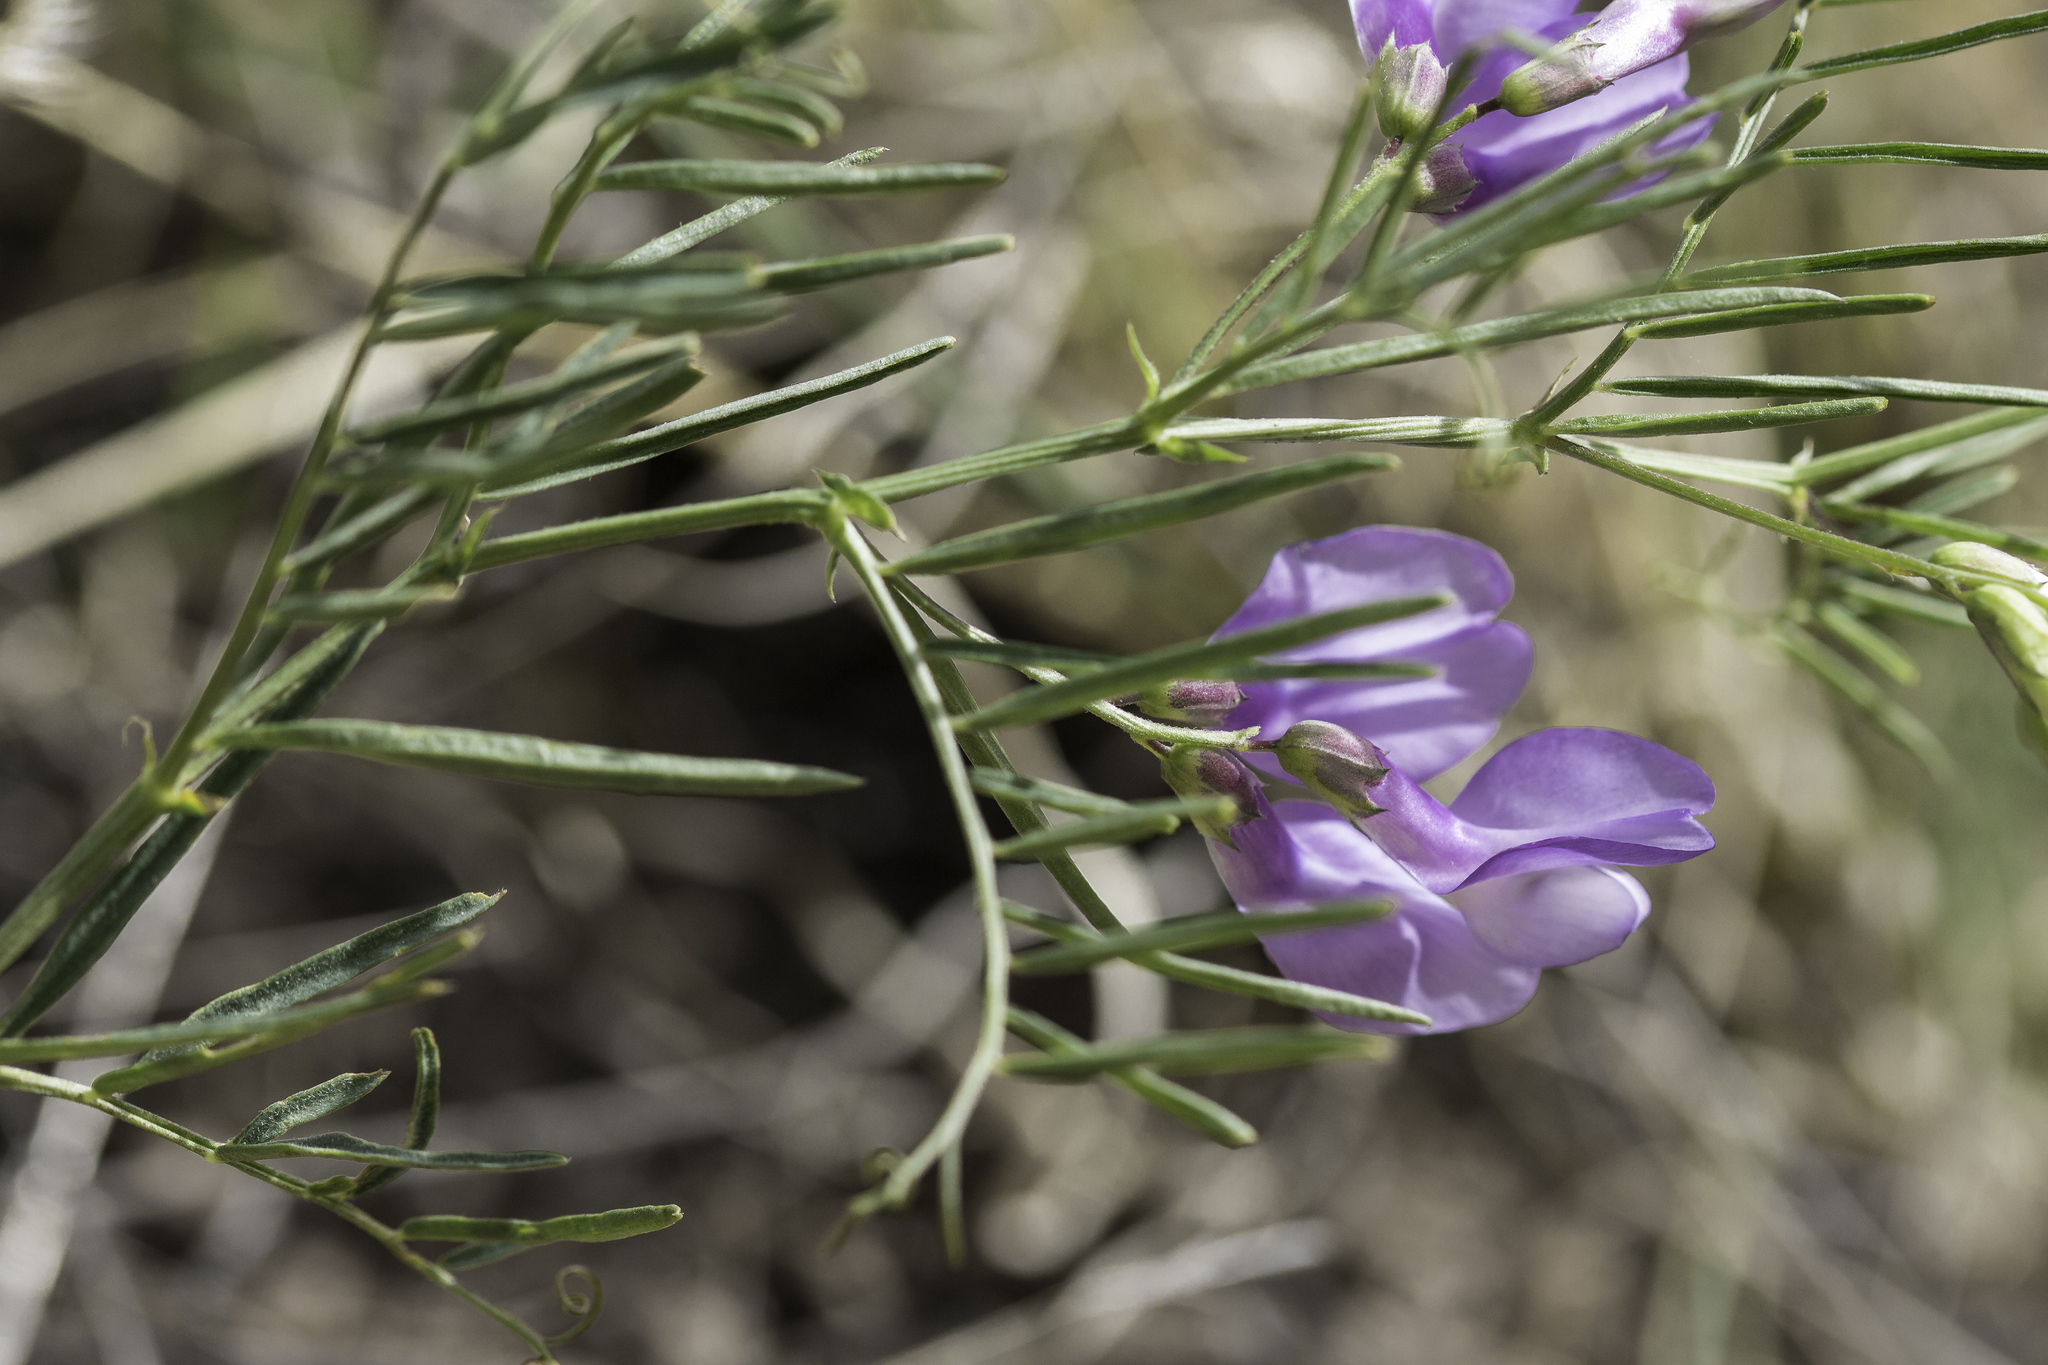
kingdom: Plantae
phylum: Tracheophyta
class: Magnoliopsida
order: Fabales
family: Fabaceae
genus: Vicia
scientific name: Vicia americana
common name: American vetch
